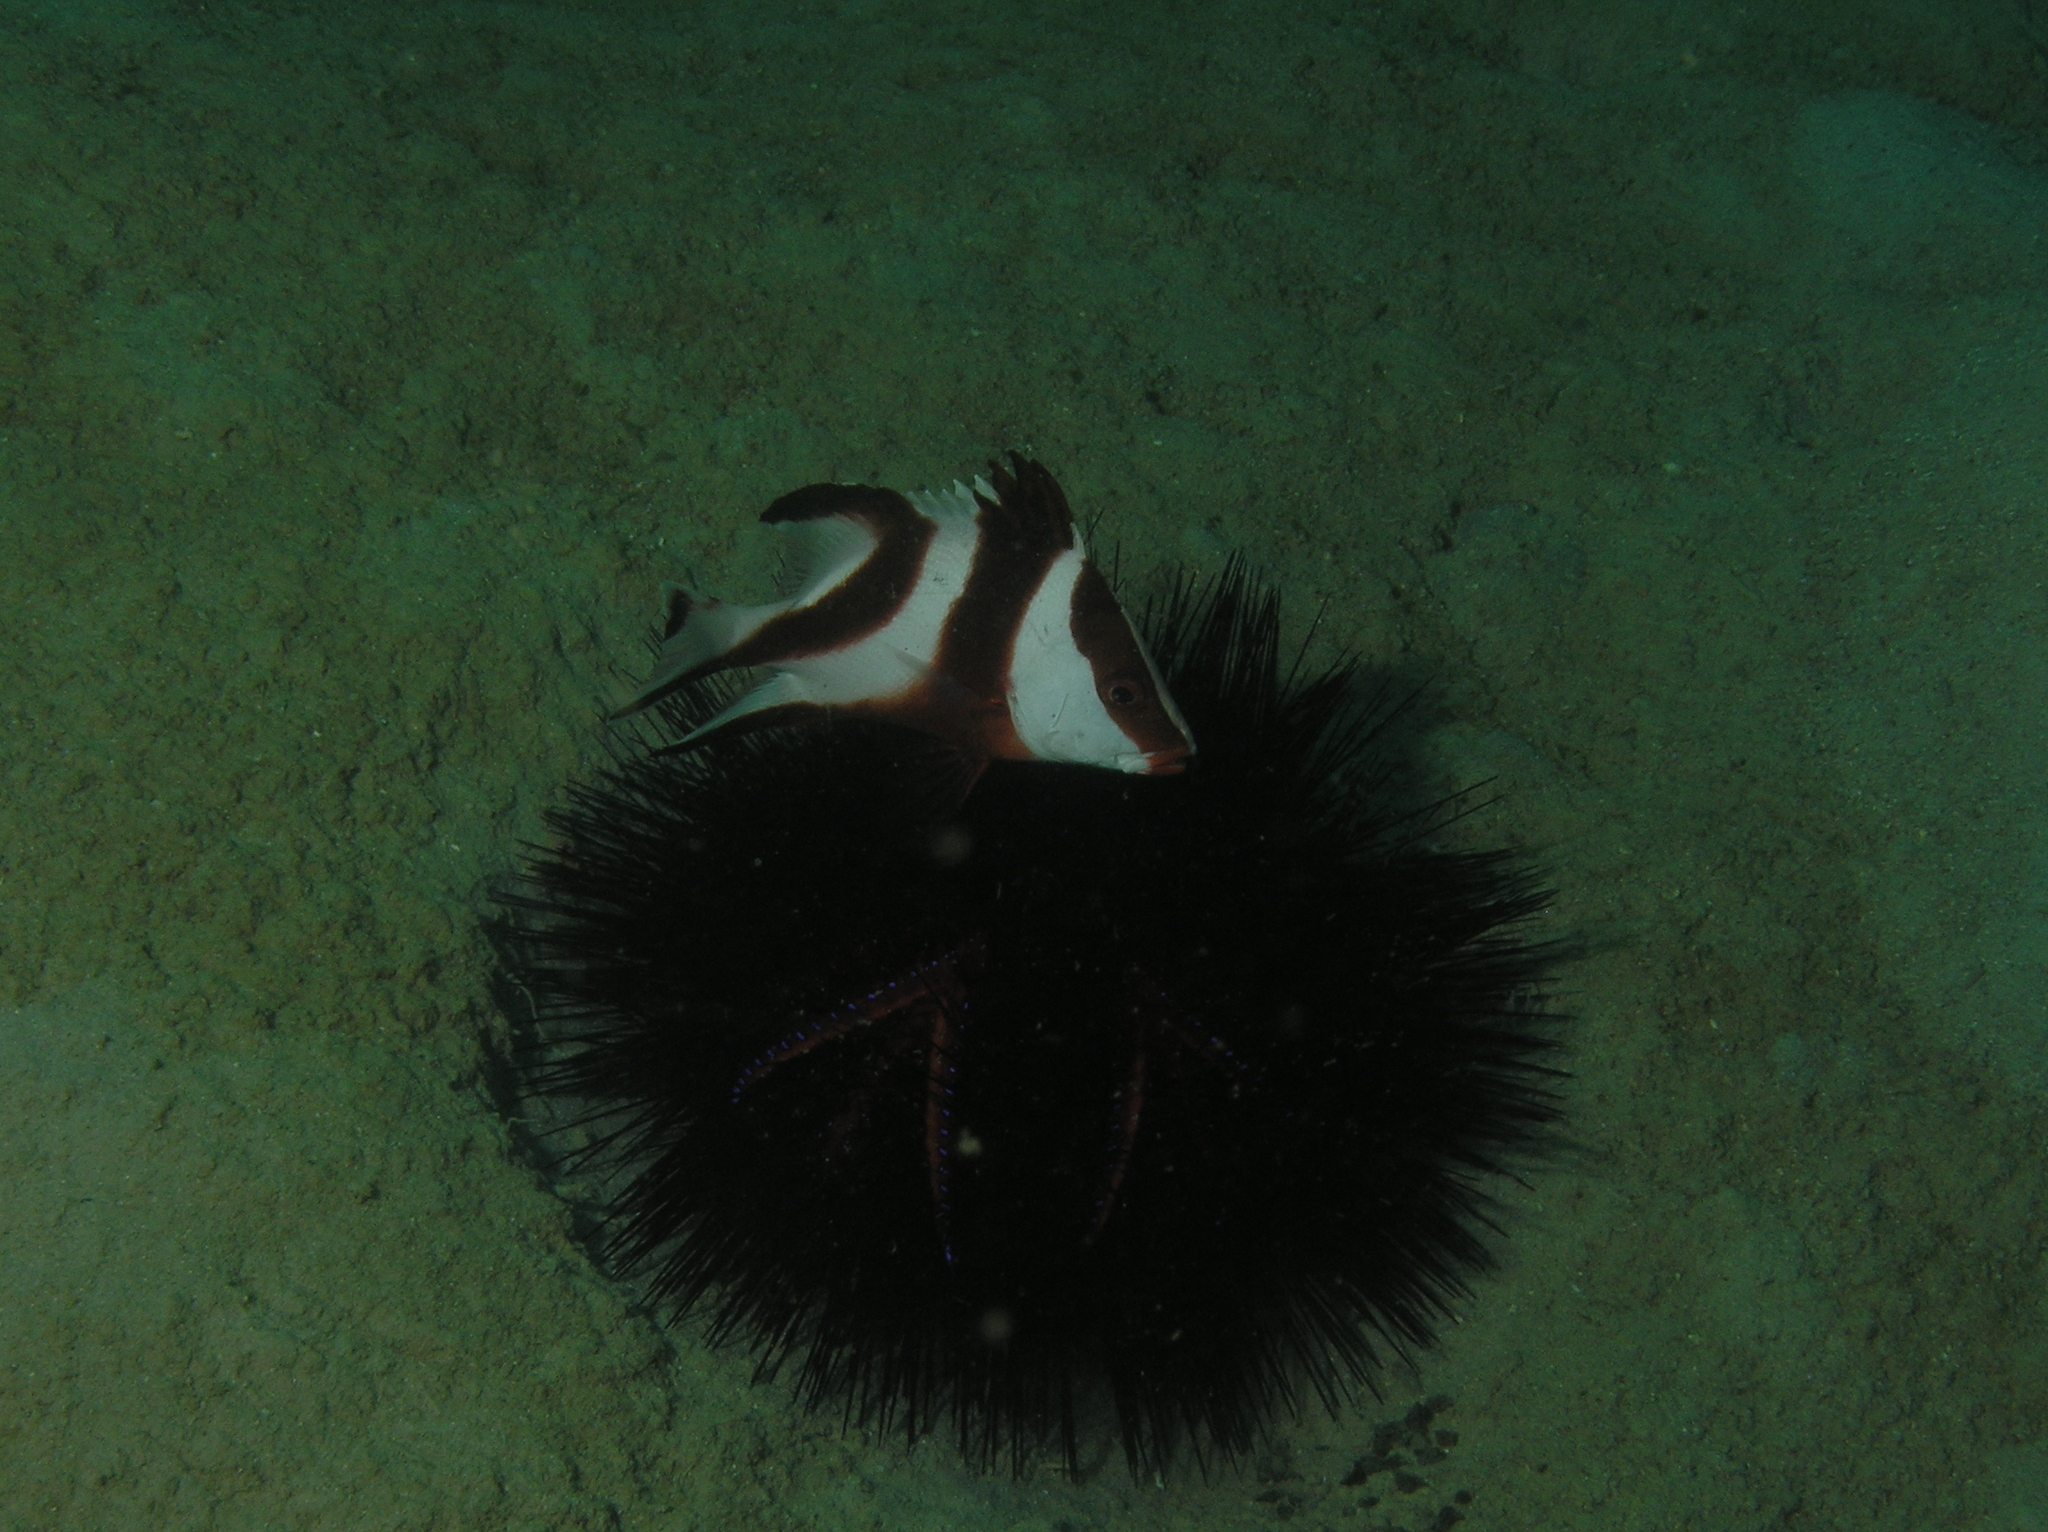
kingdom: Animalia
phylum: Chordata
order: Perciformes
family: Lutjanidae
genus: Lutjanus
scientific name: Lutjanus sebae
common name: Emperor red snapper
